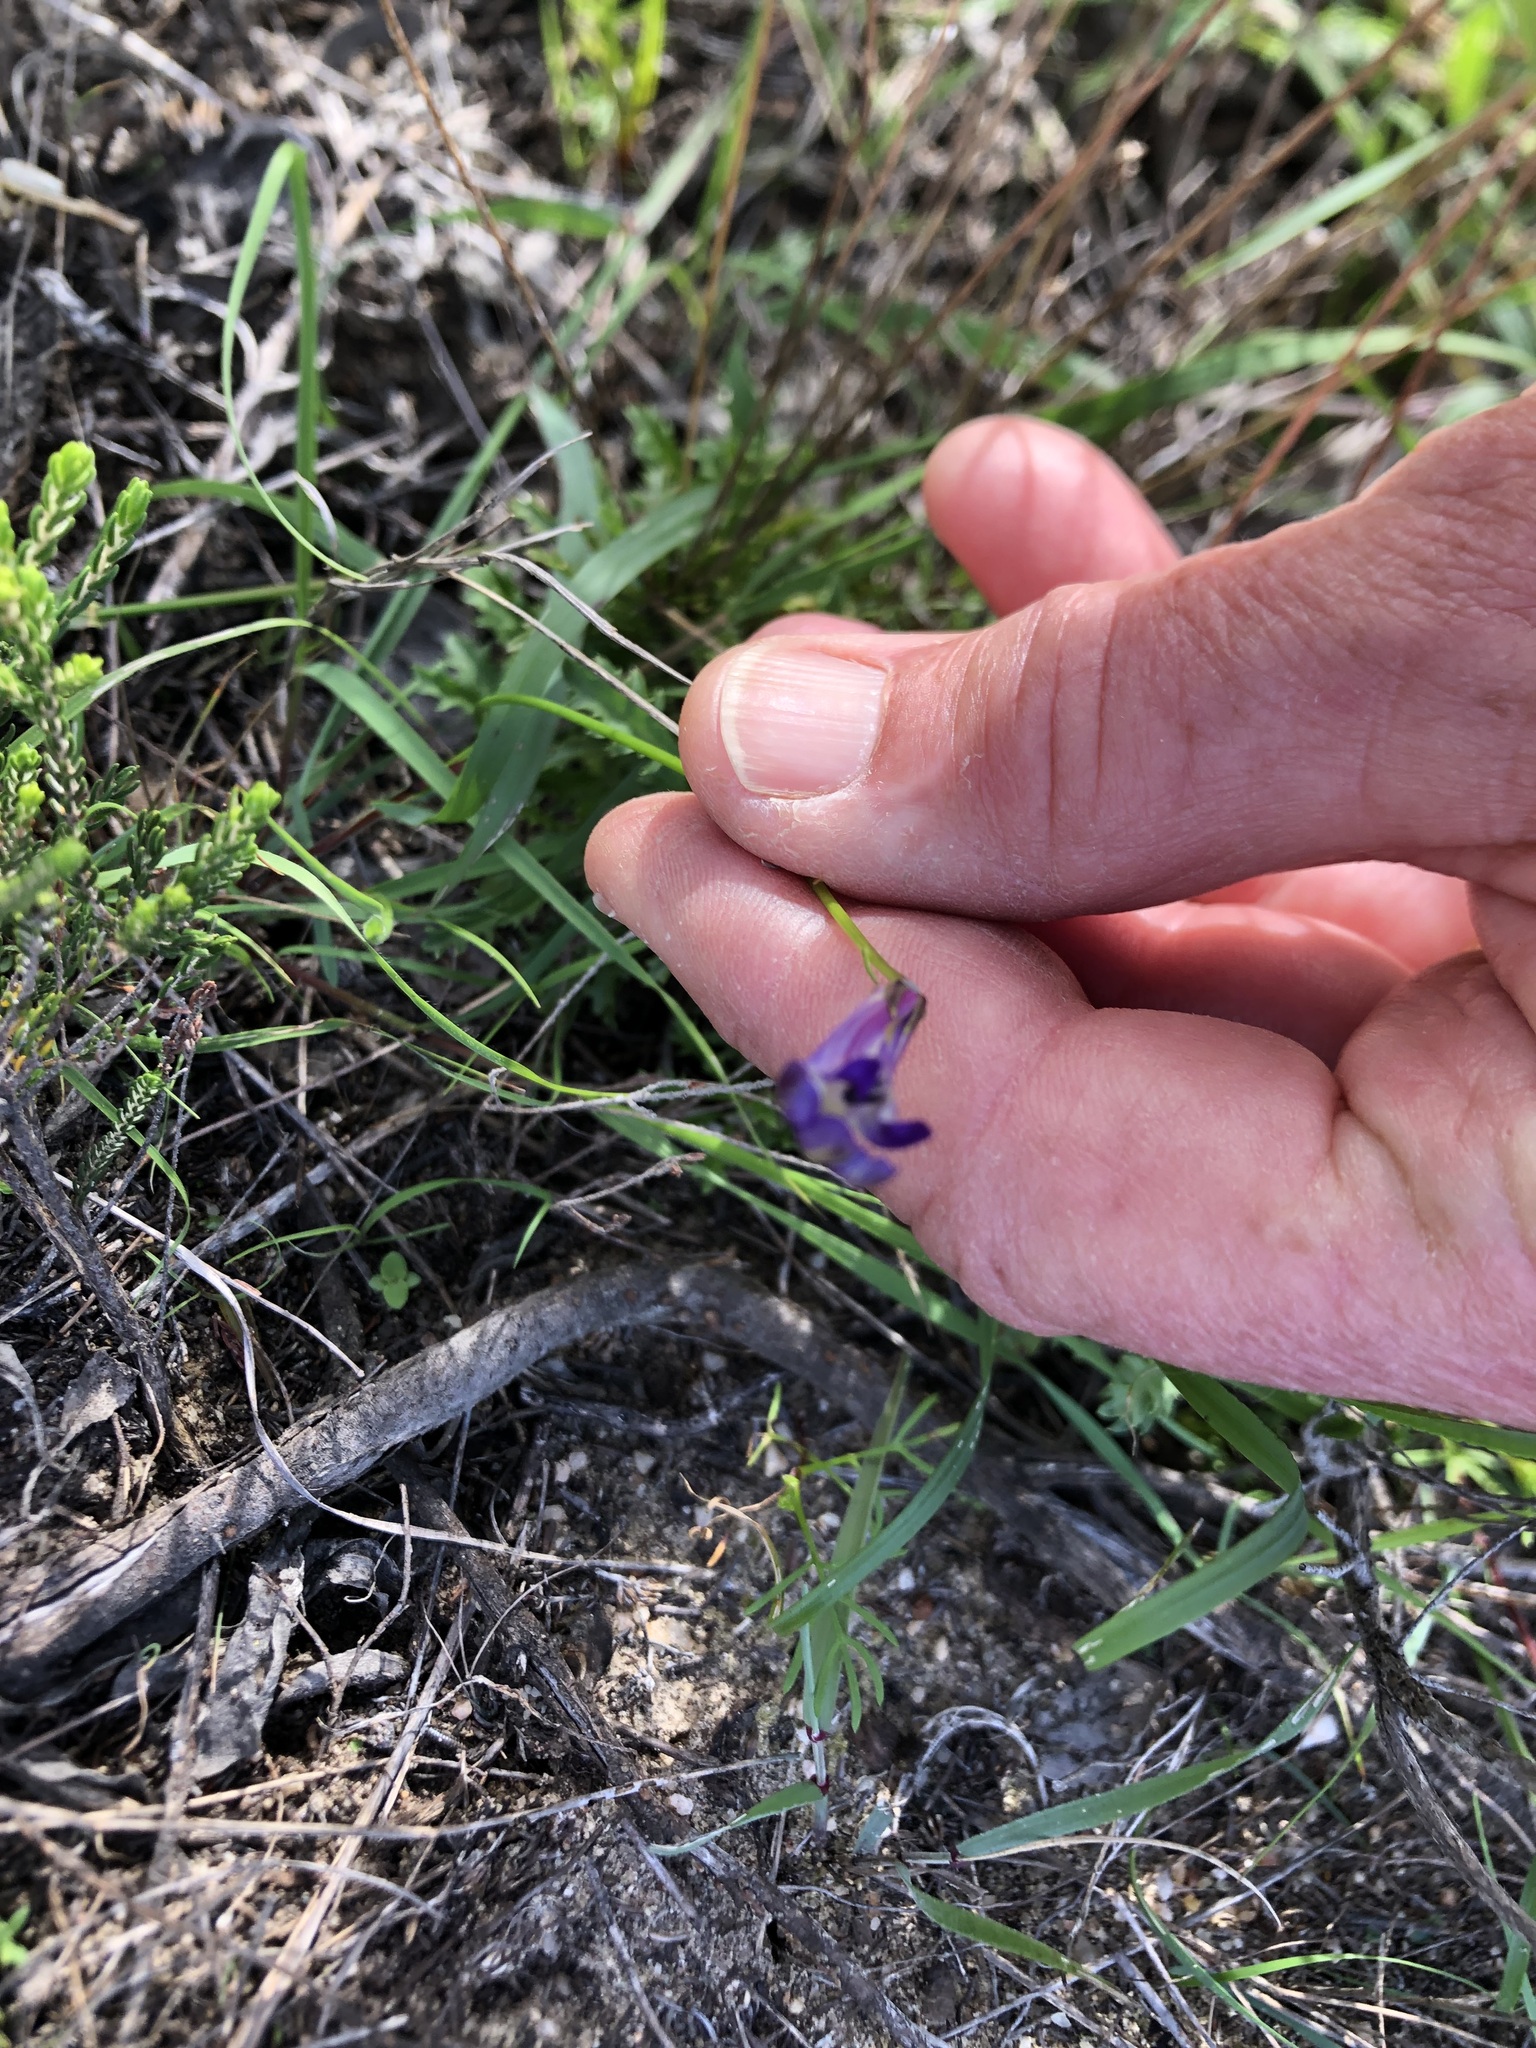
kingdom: Plantae
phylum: Tracheophyta
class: Magnoliopsida
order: Asterales
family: Campanulaceae
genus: Lobelia
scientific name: Lobelia coronopifolia
